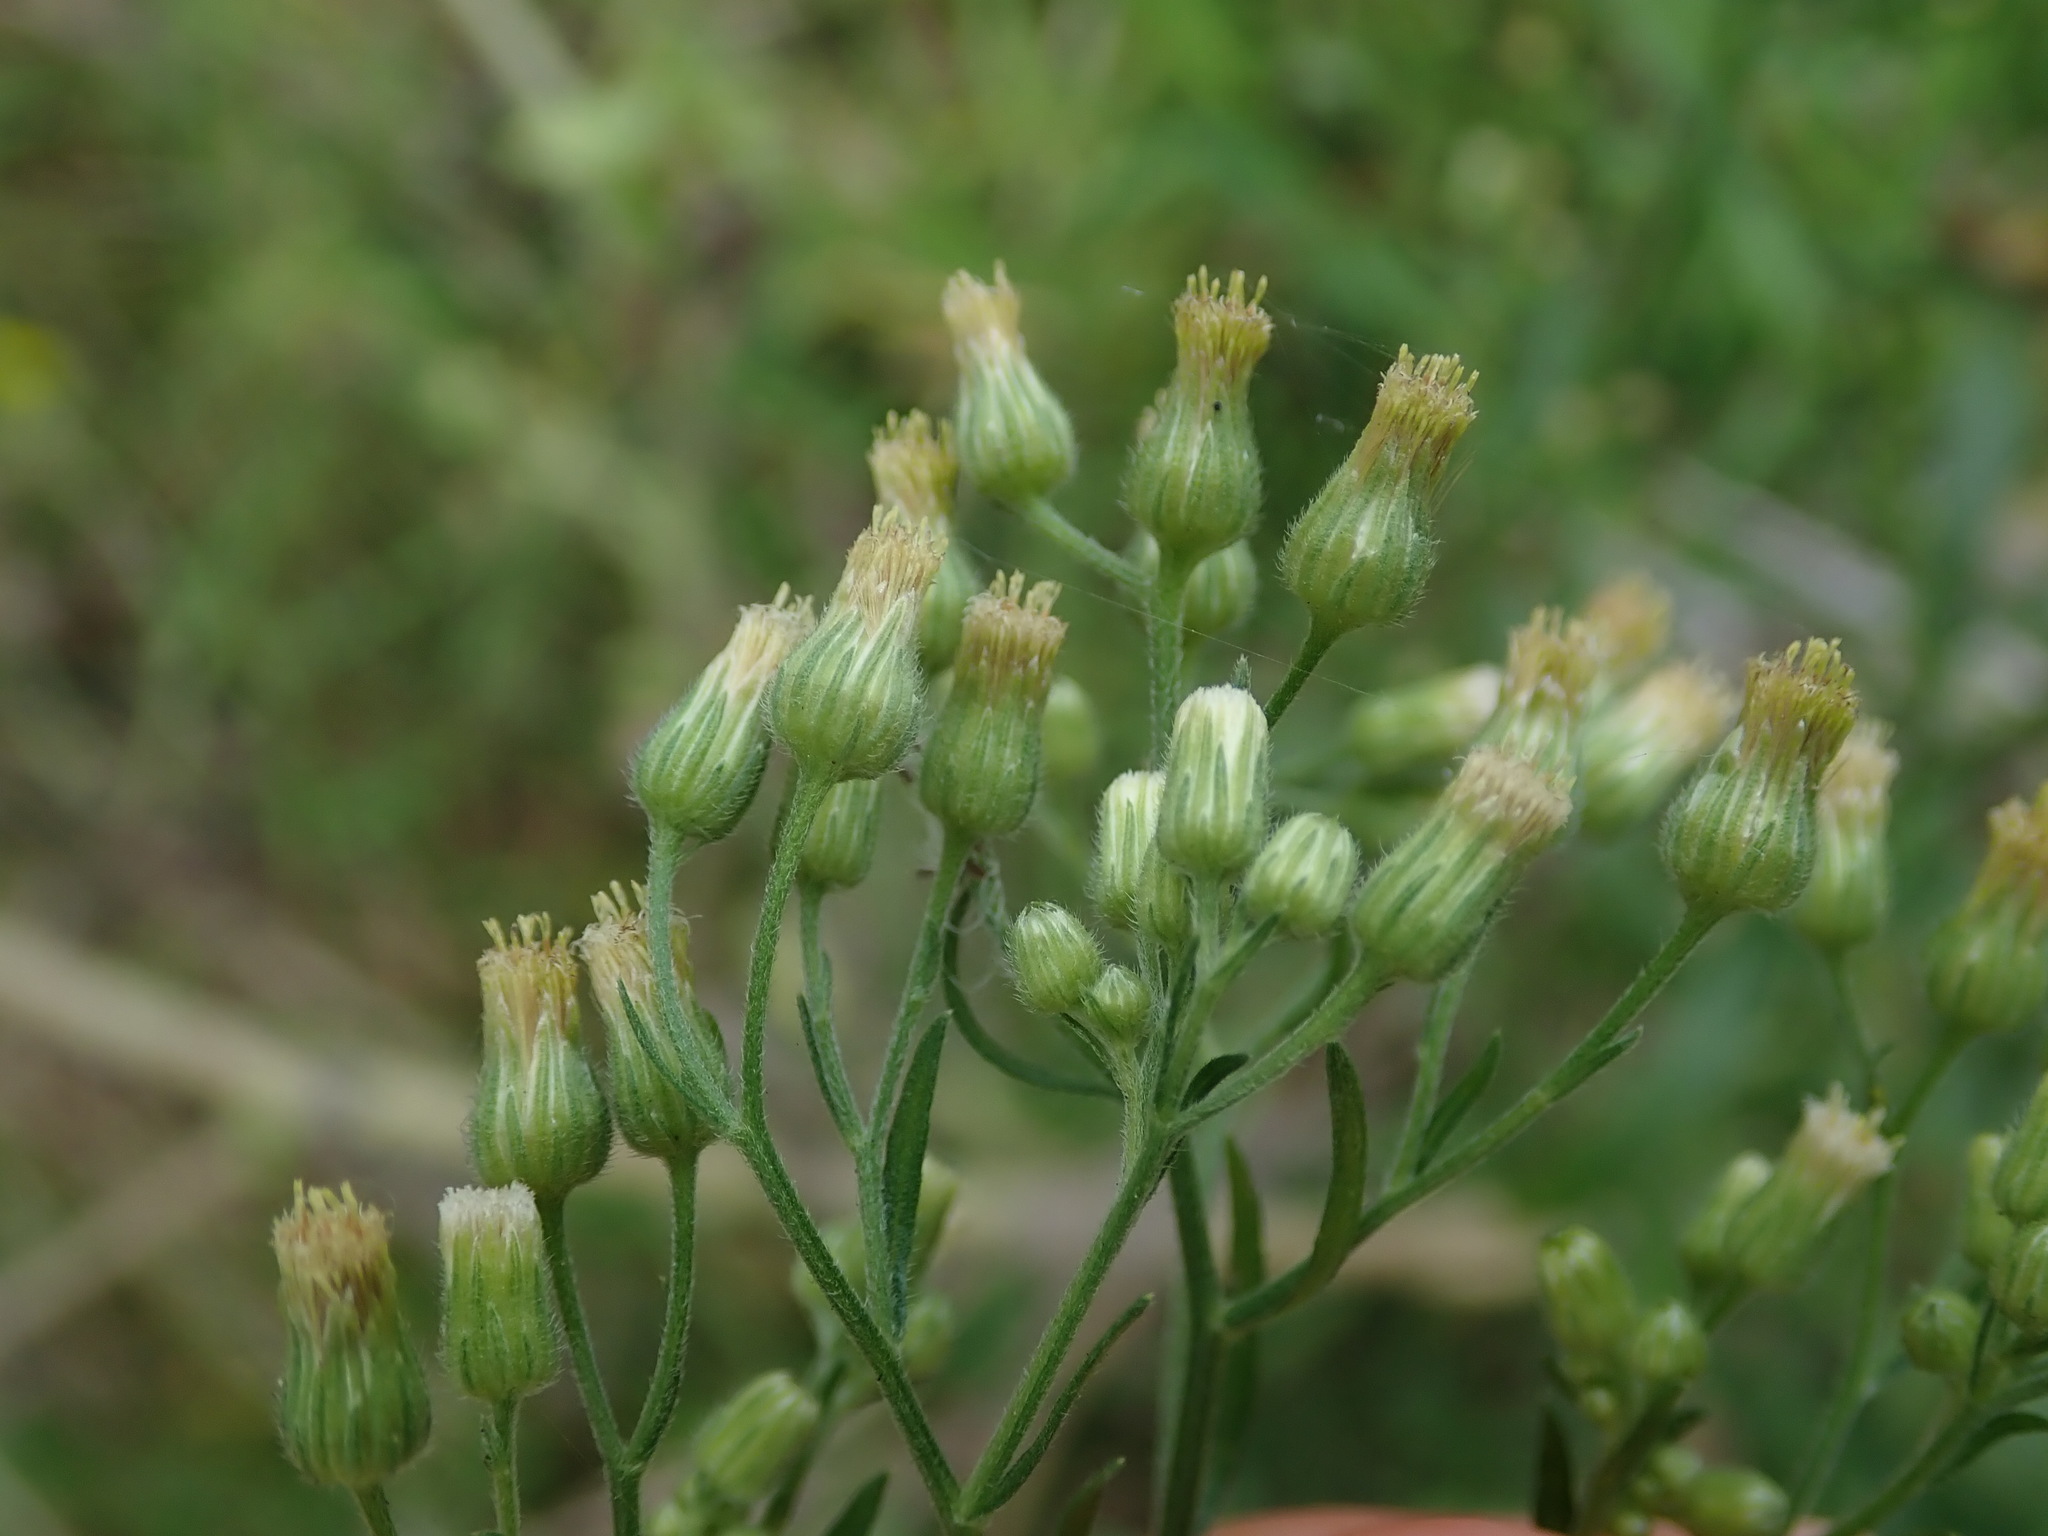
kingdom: Plantae
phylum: Tracheophyta
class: Magnoliopsida
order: Asterales
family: Asteraceae
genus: Erigeron
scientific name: Erigeron sumatrensis
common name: Daisy
